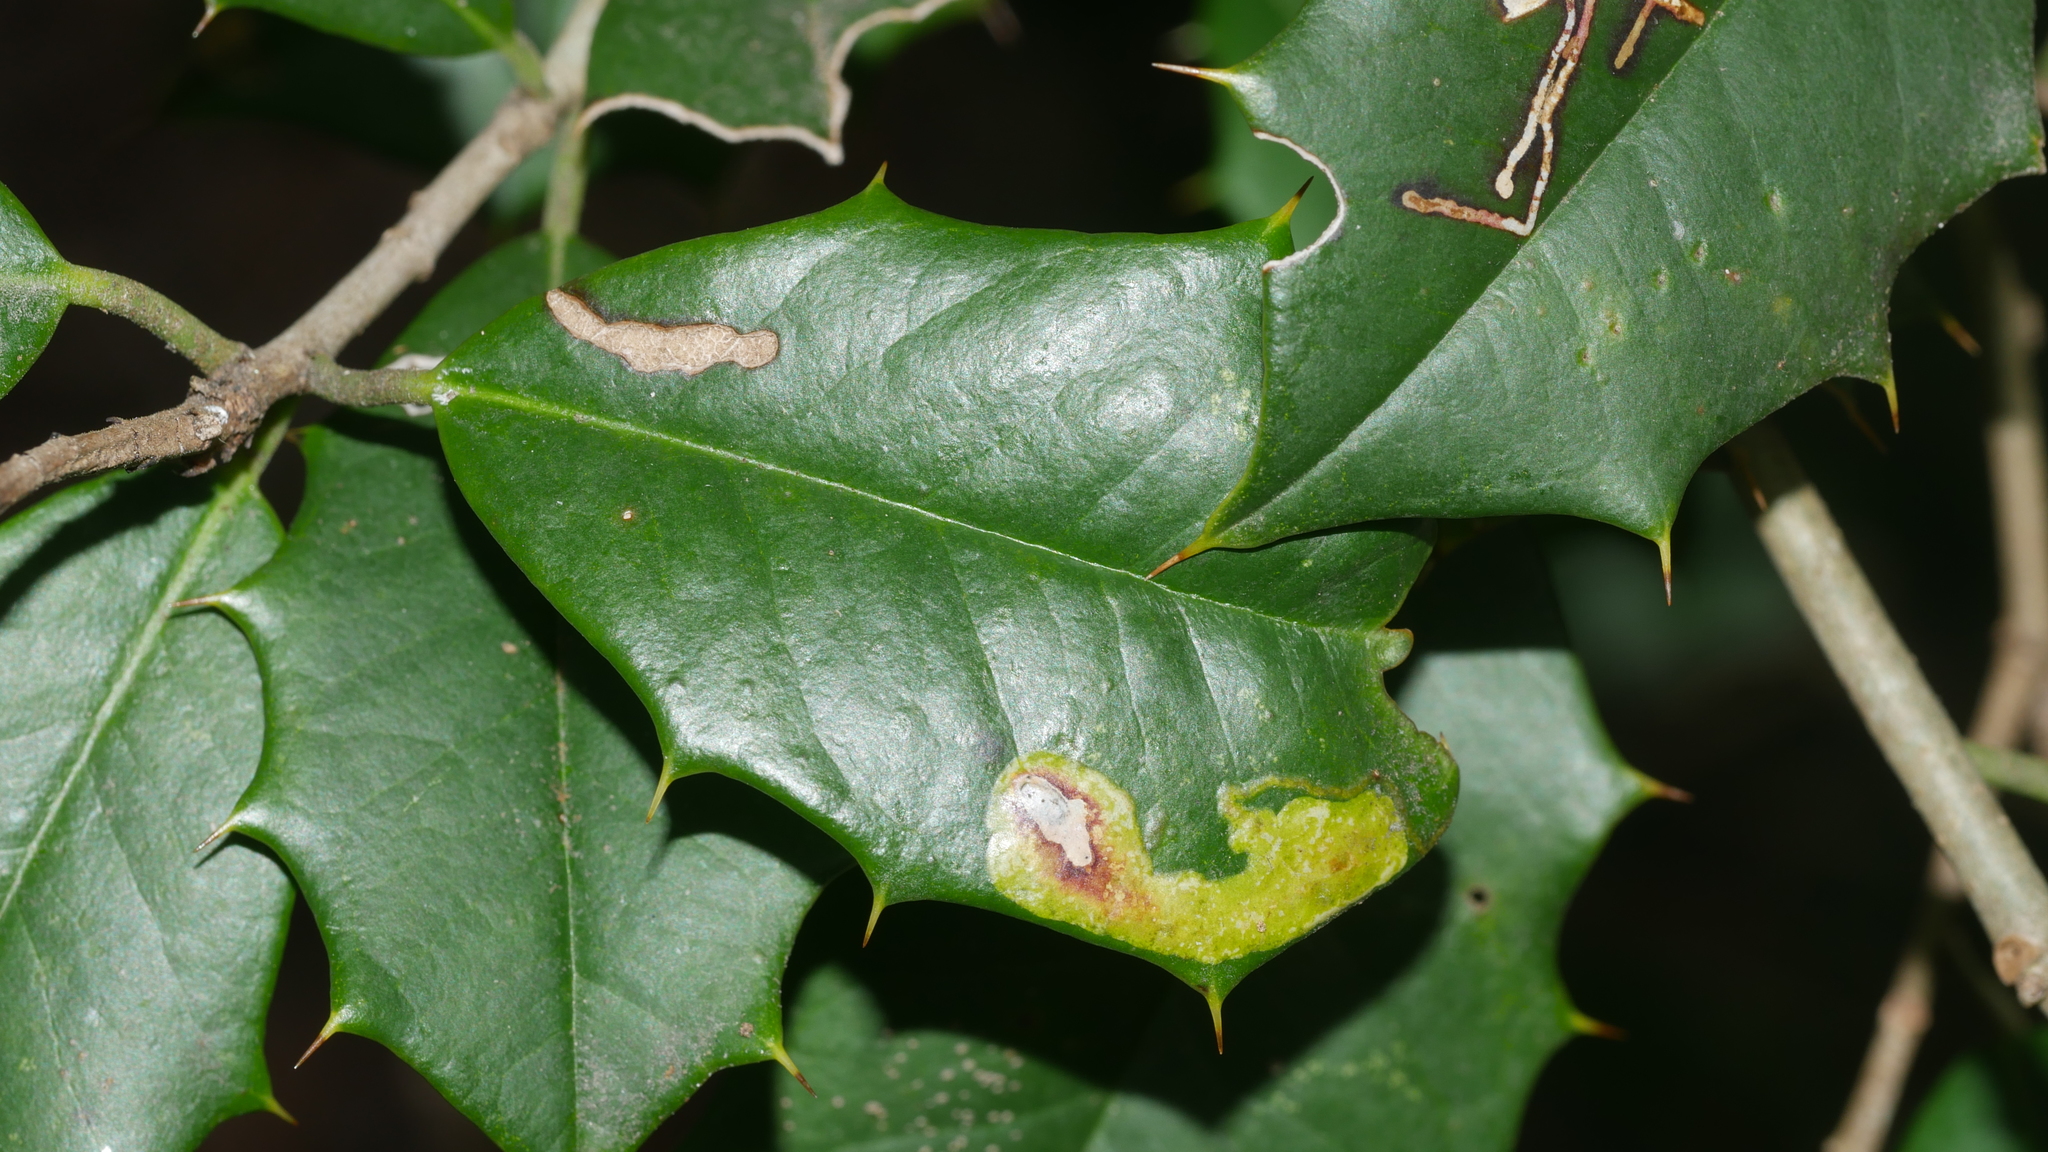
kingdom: Animalia
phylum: Arthropoda
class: Insecta
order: Diptera
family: Agromyzidae
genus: Phytomyza
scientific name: Phytomyza ilicicola
